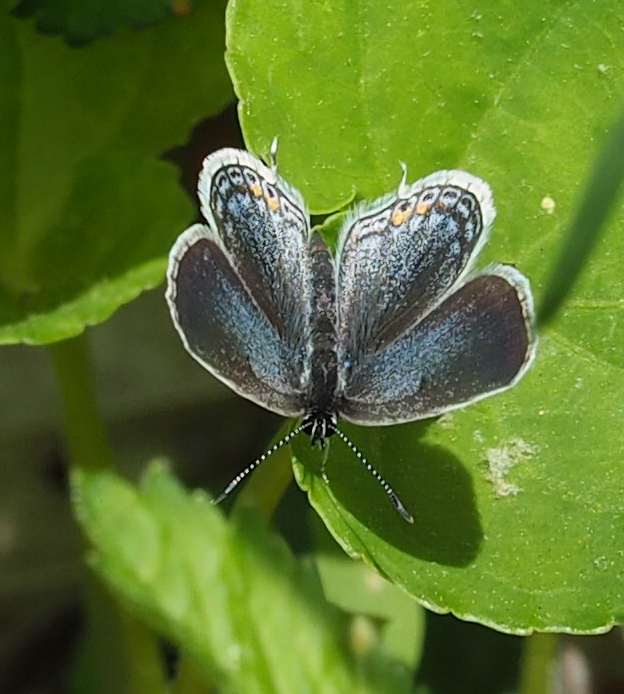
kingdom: Animalia
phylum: Arthropoda
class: Insecta
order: Lepidoptera
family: Lycaenidae
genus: Elkalyce
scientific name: Elkalyce comyntas
